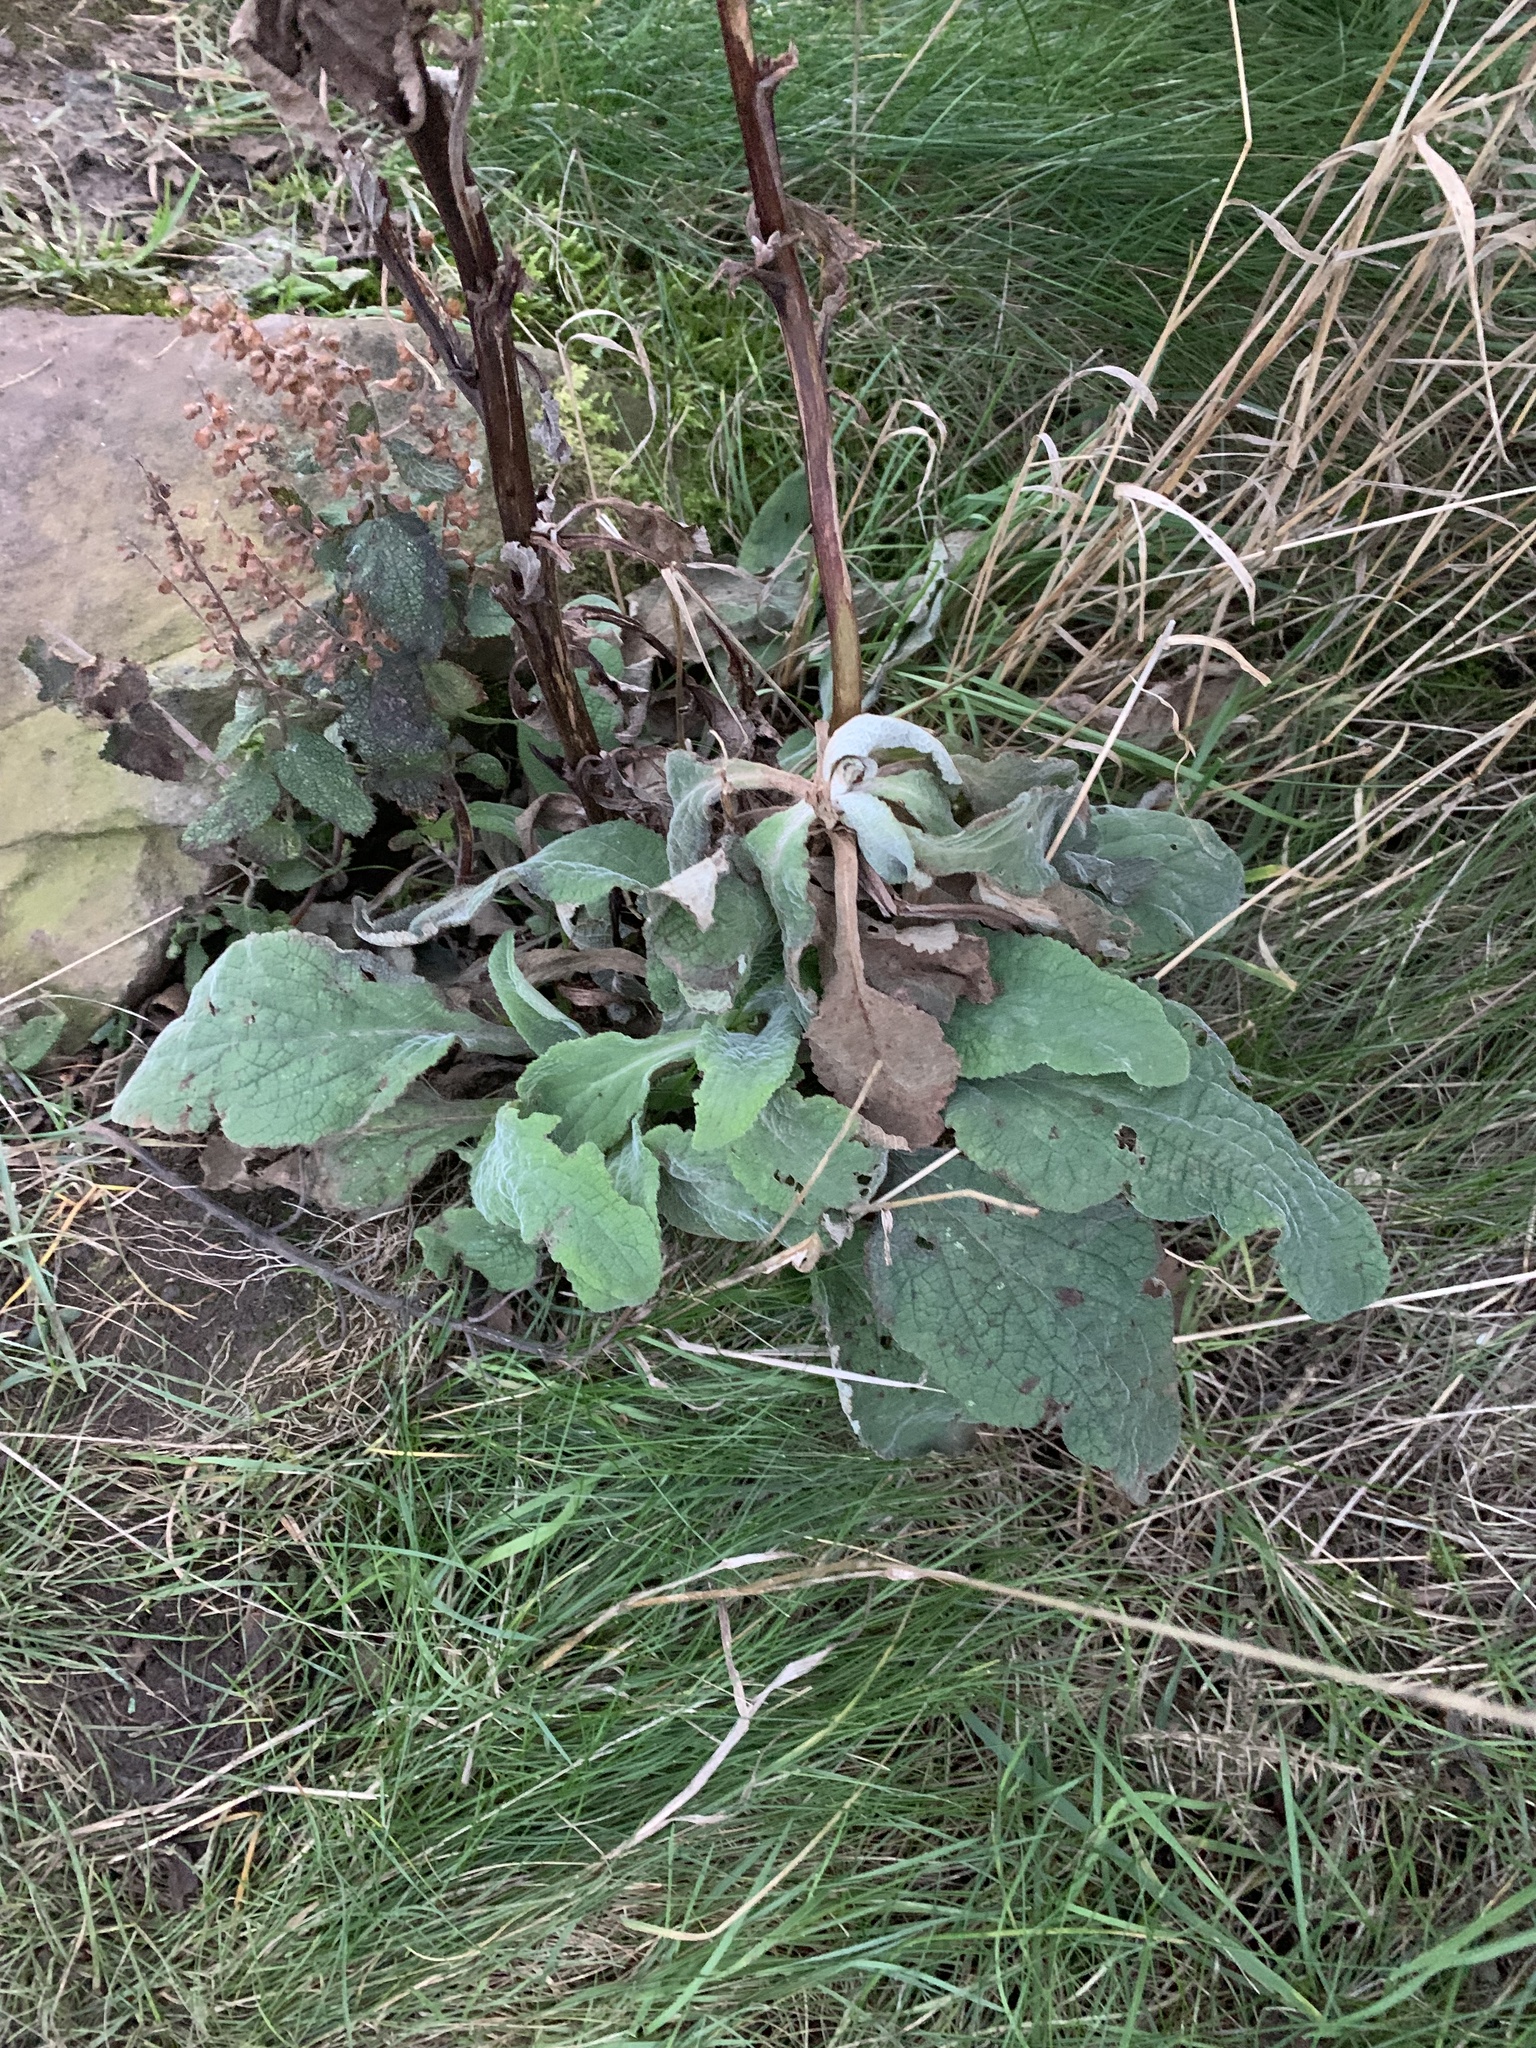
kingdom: Plantae
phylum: Tracheophyta
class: Magnoliopsida
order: Lamiales
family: Plantaginaceae
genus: Digitalis
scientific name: Digitalis purpurea
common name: Foxglove
